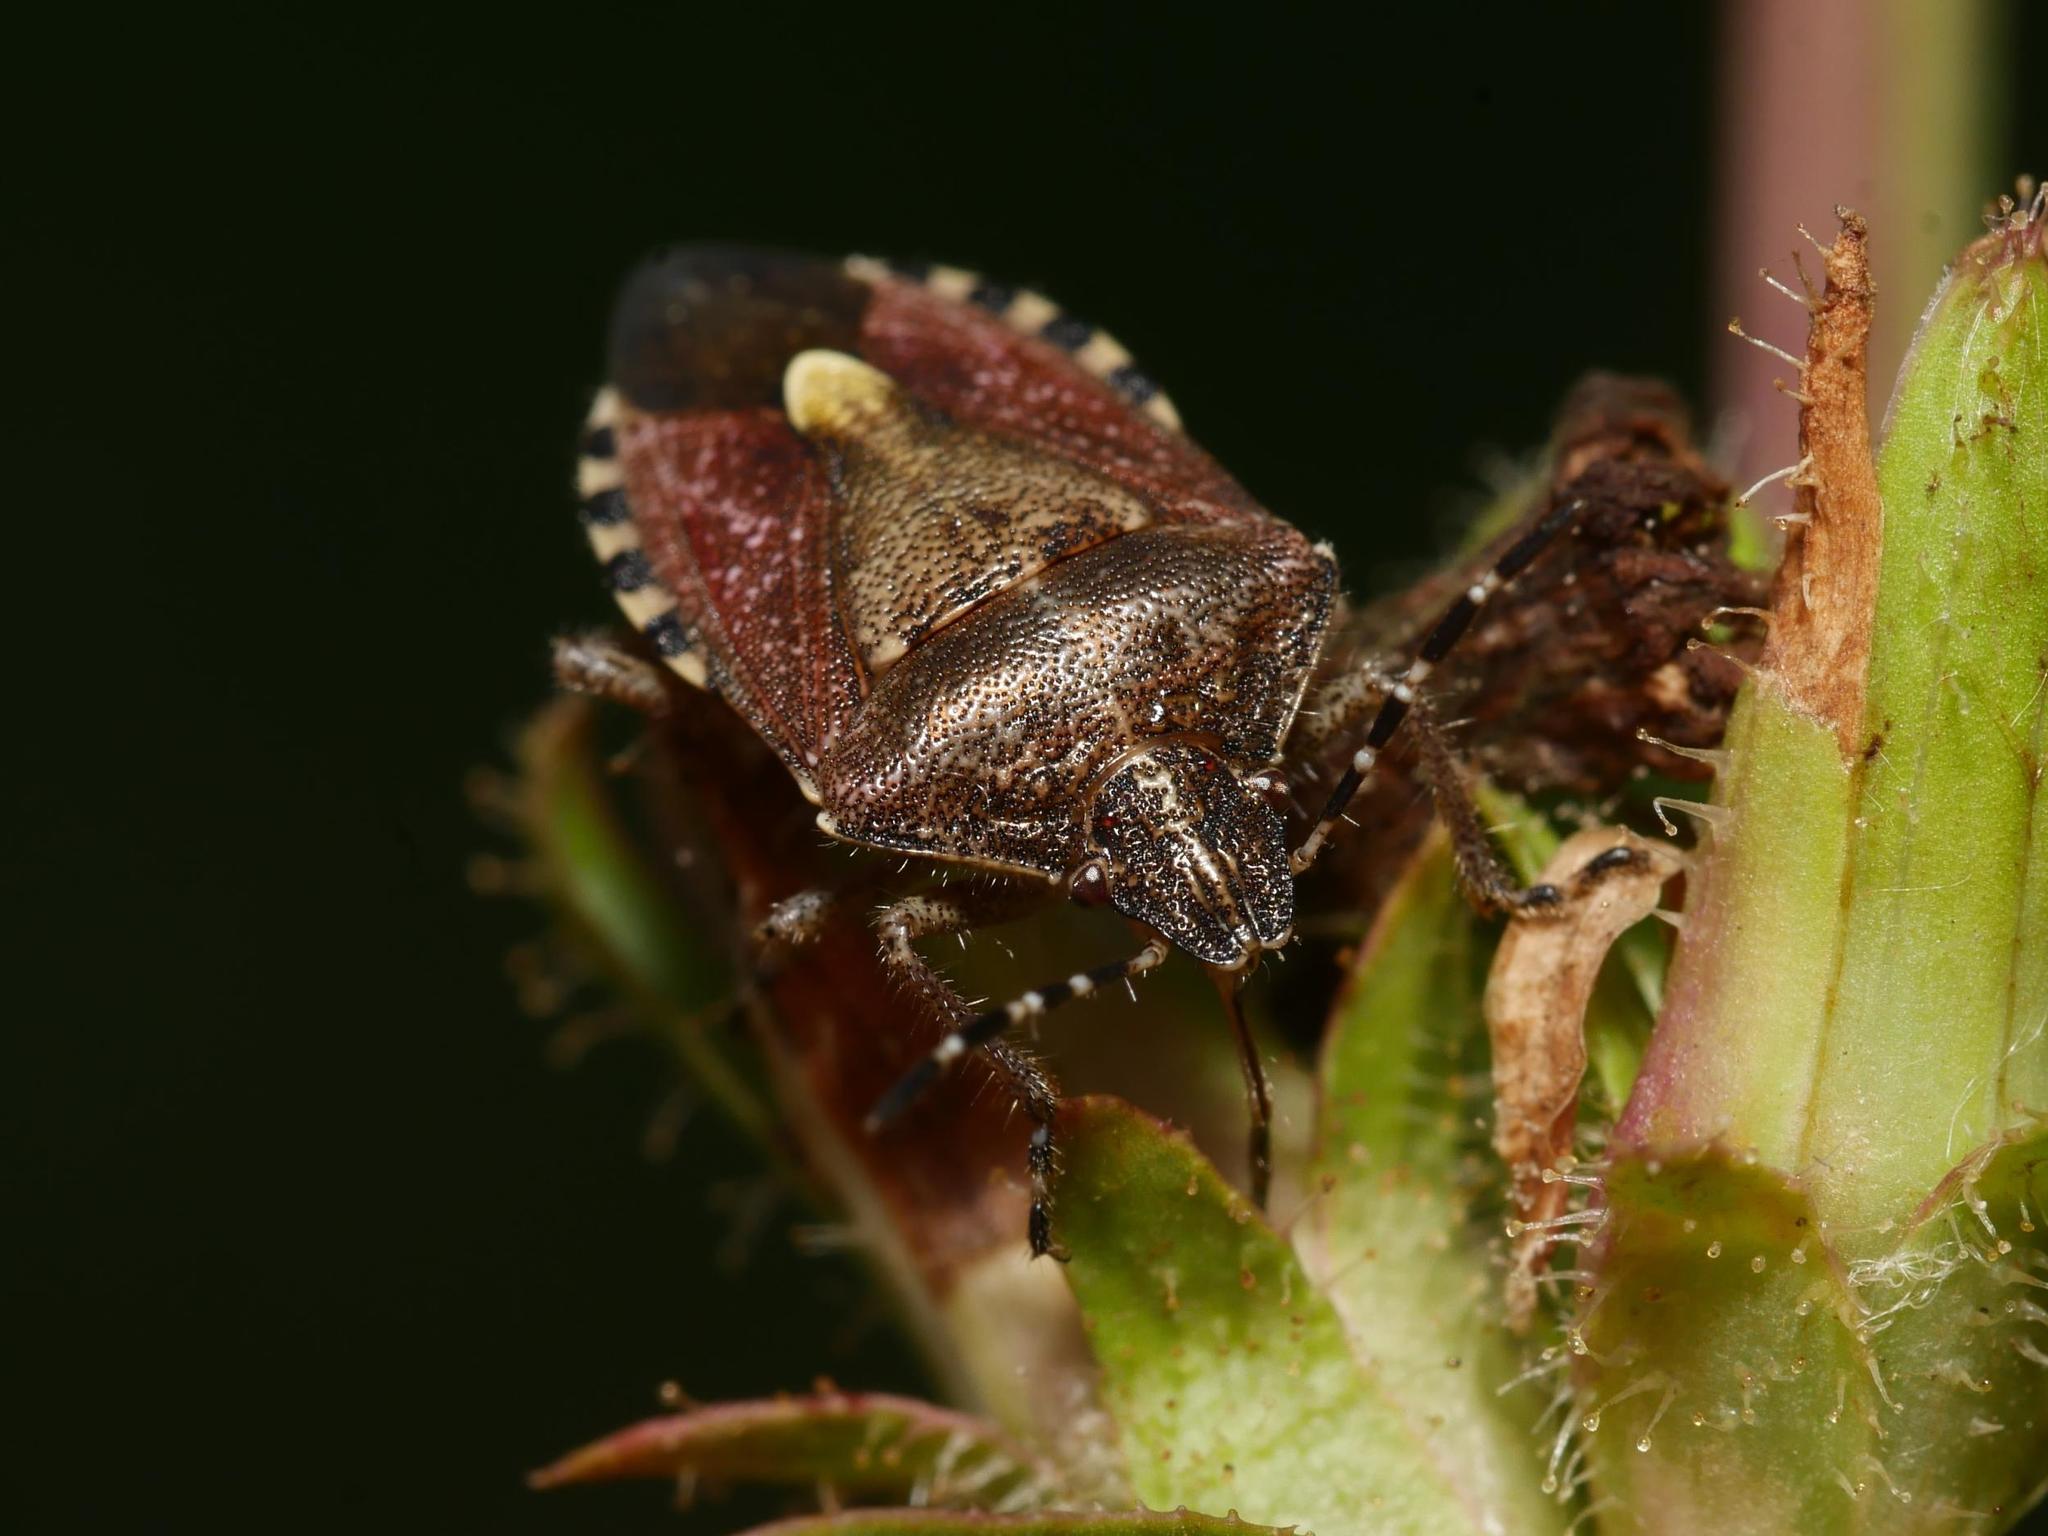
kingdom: Animalia
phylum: Arthropoda
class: Insecta
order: Hemiptera
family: Pentatomidae
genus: Dolycoris
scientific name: Dolycoris baccarum
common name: Sloe bug
